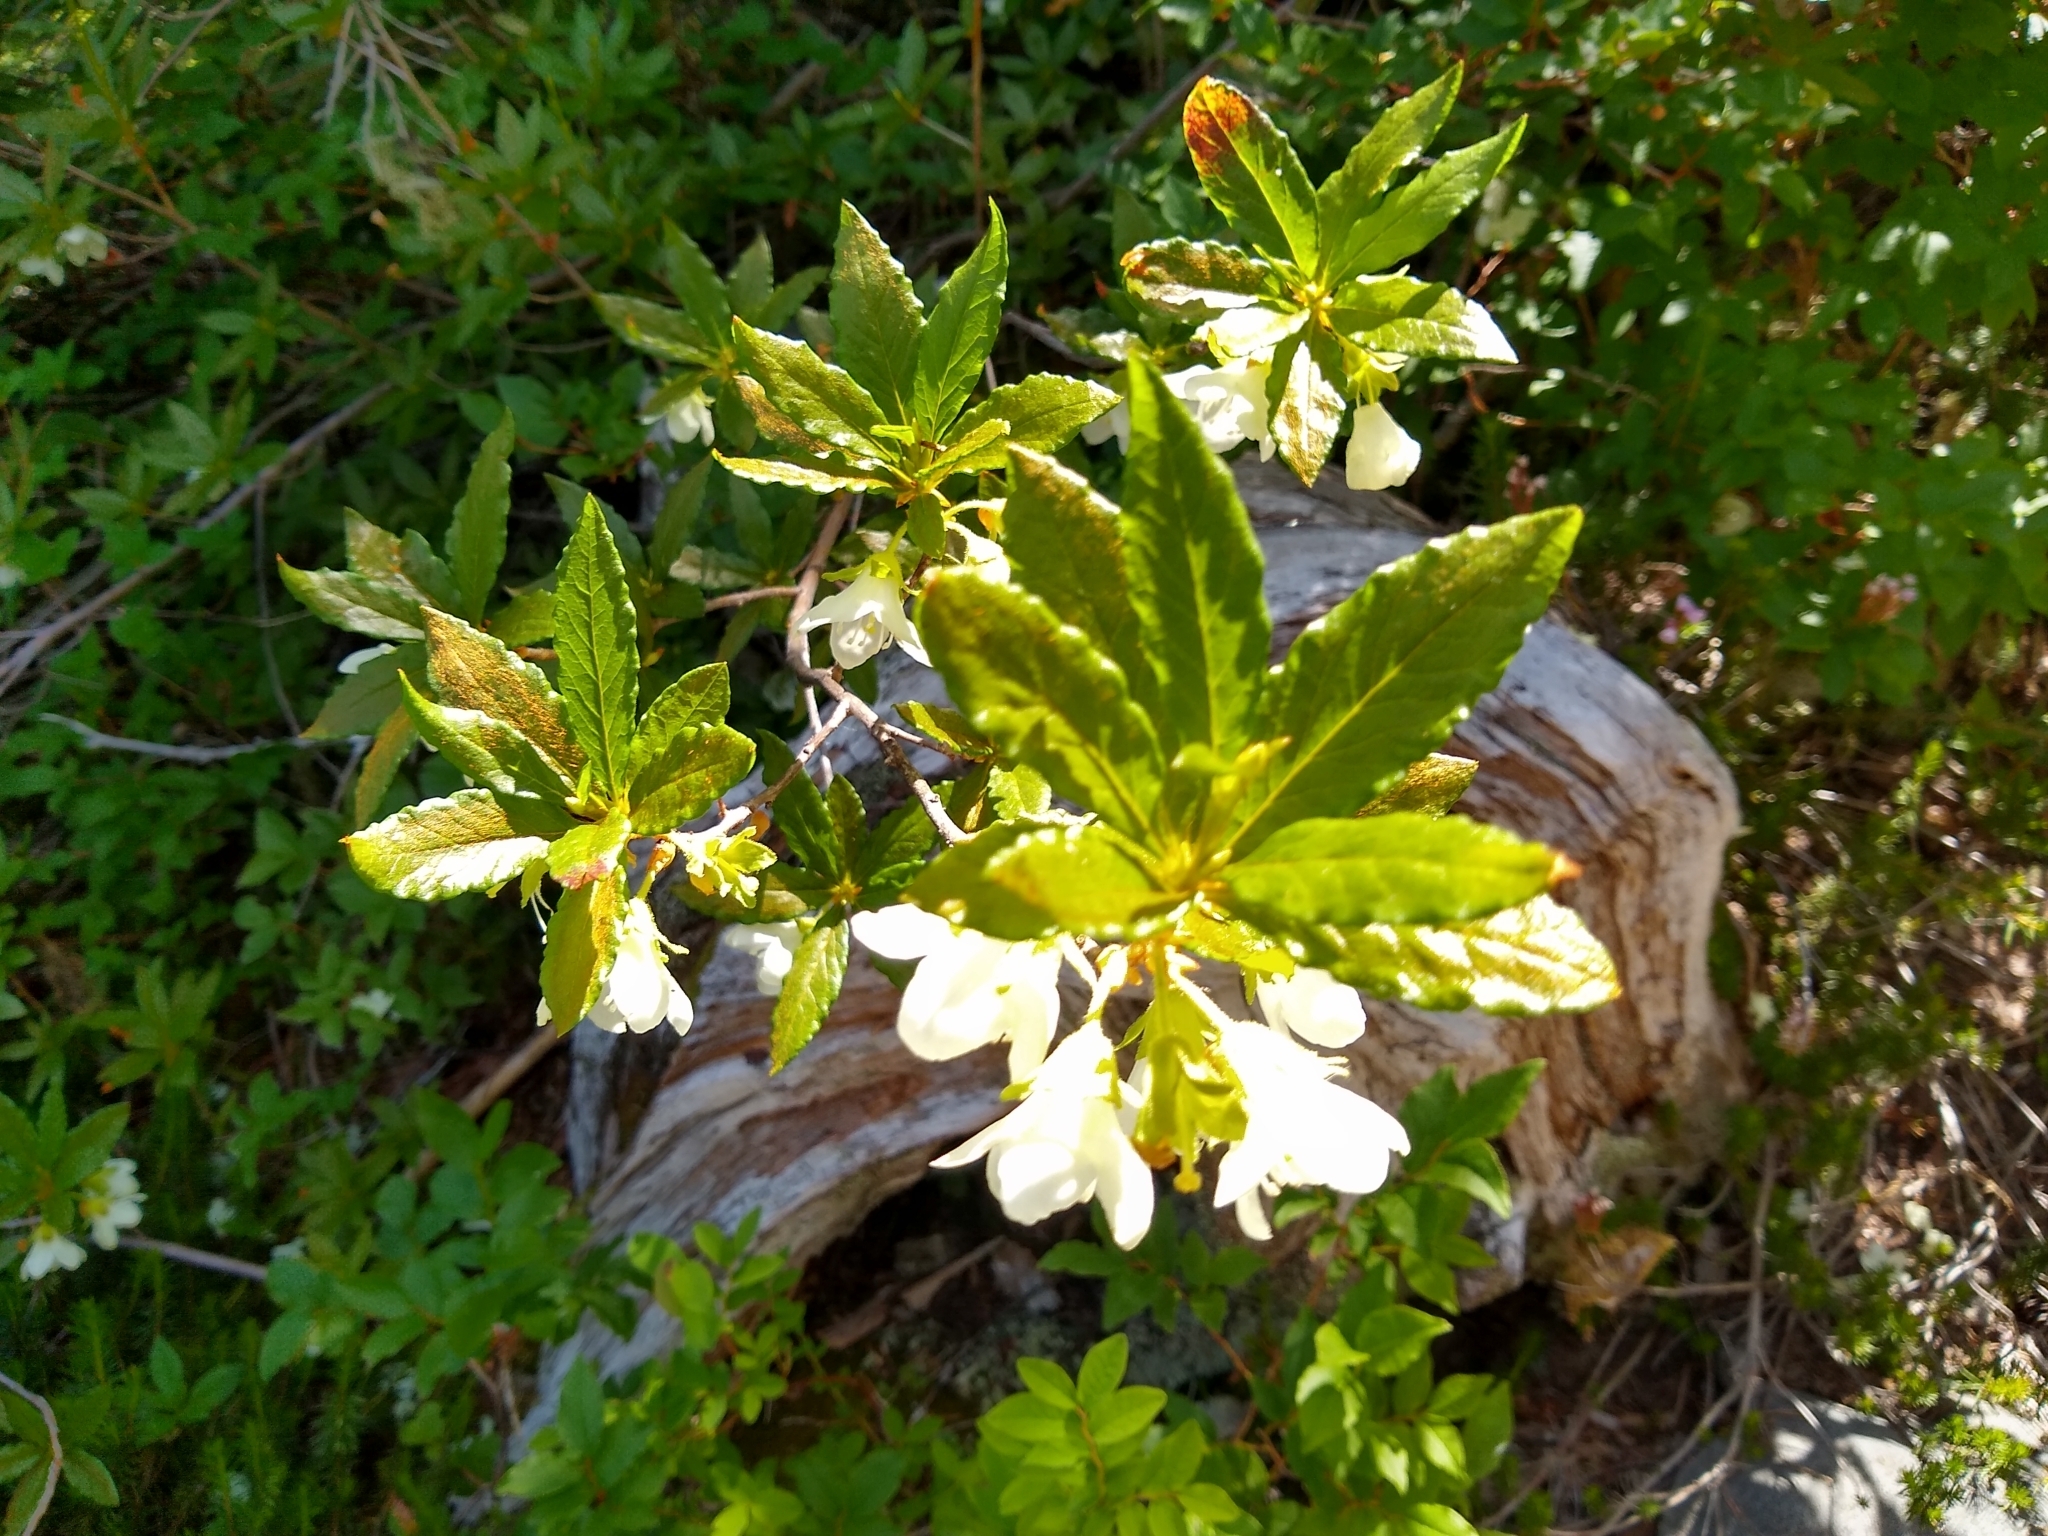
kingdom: Plantae
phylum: Tracheophyta
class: Magnoliopsida
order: Ericales
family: Ericaceae
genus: Rhododendron
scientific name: Rhododendron albiflorum
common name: White rhododendron
